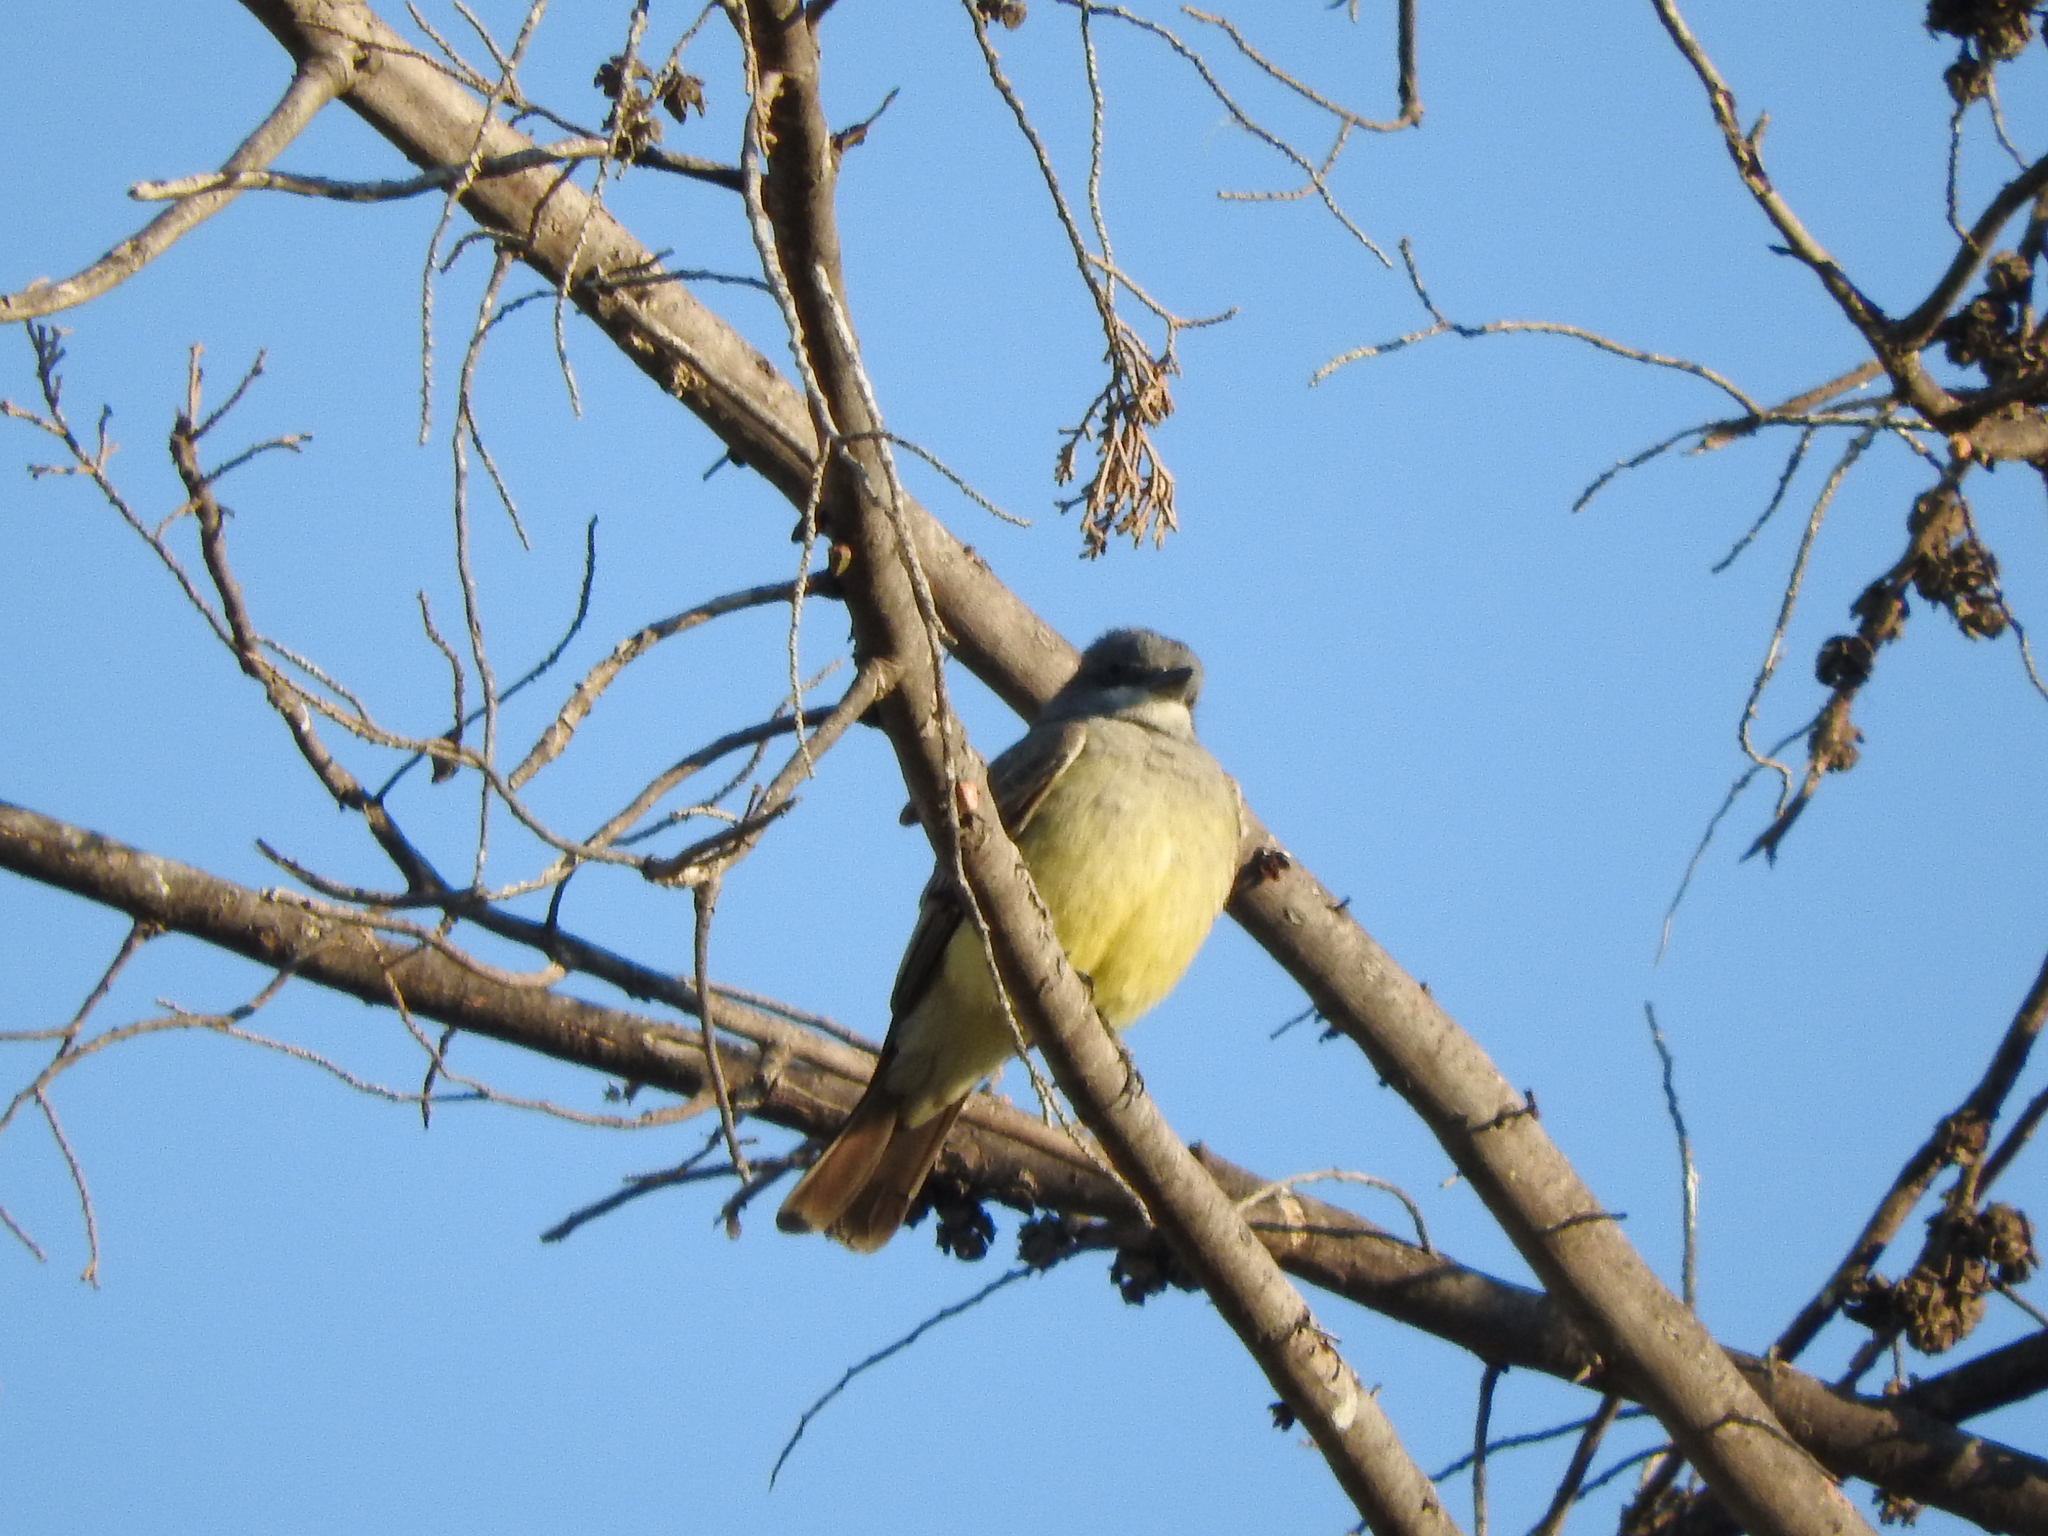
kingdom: Animalia
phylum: Chordata
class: Aves
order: Passeriformes
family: Tyrannidae
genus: Tyrannus
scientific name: Tyrannus vociferans
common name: Cassin's kingbird
